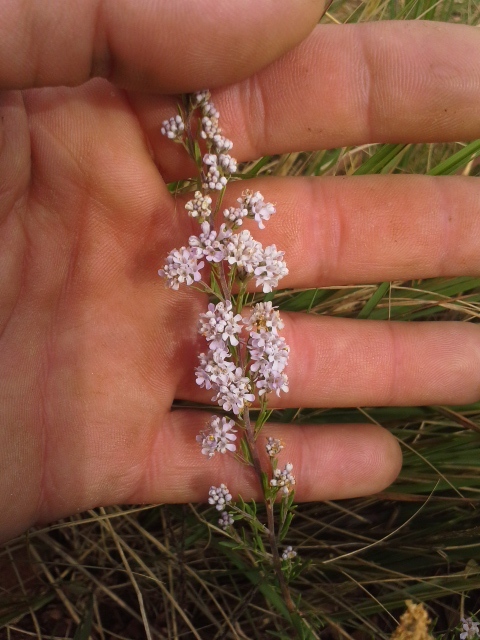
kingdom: Plantae
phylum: Tracheophyta
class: Magnoliopsida
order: Lamiales
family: Scrophulariaceae
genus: Selago
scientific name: Selago capitellata
